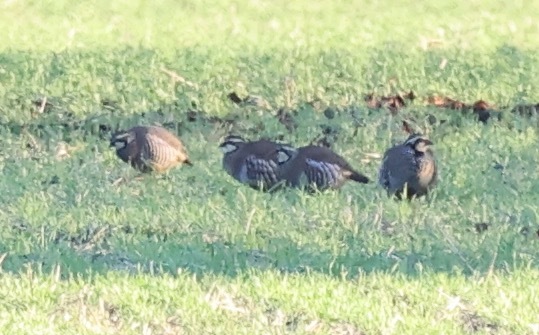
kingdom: Animalia
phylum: Chordata
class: Aves
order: Galliformes
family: Phasianidae
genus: Alectoris
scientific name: Alectoris rufa
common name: Red-legged partridge
